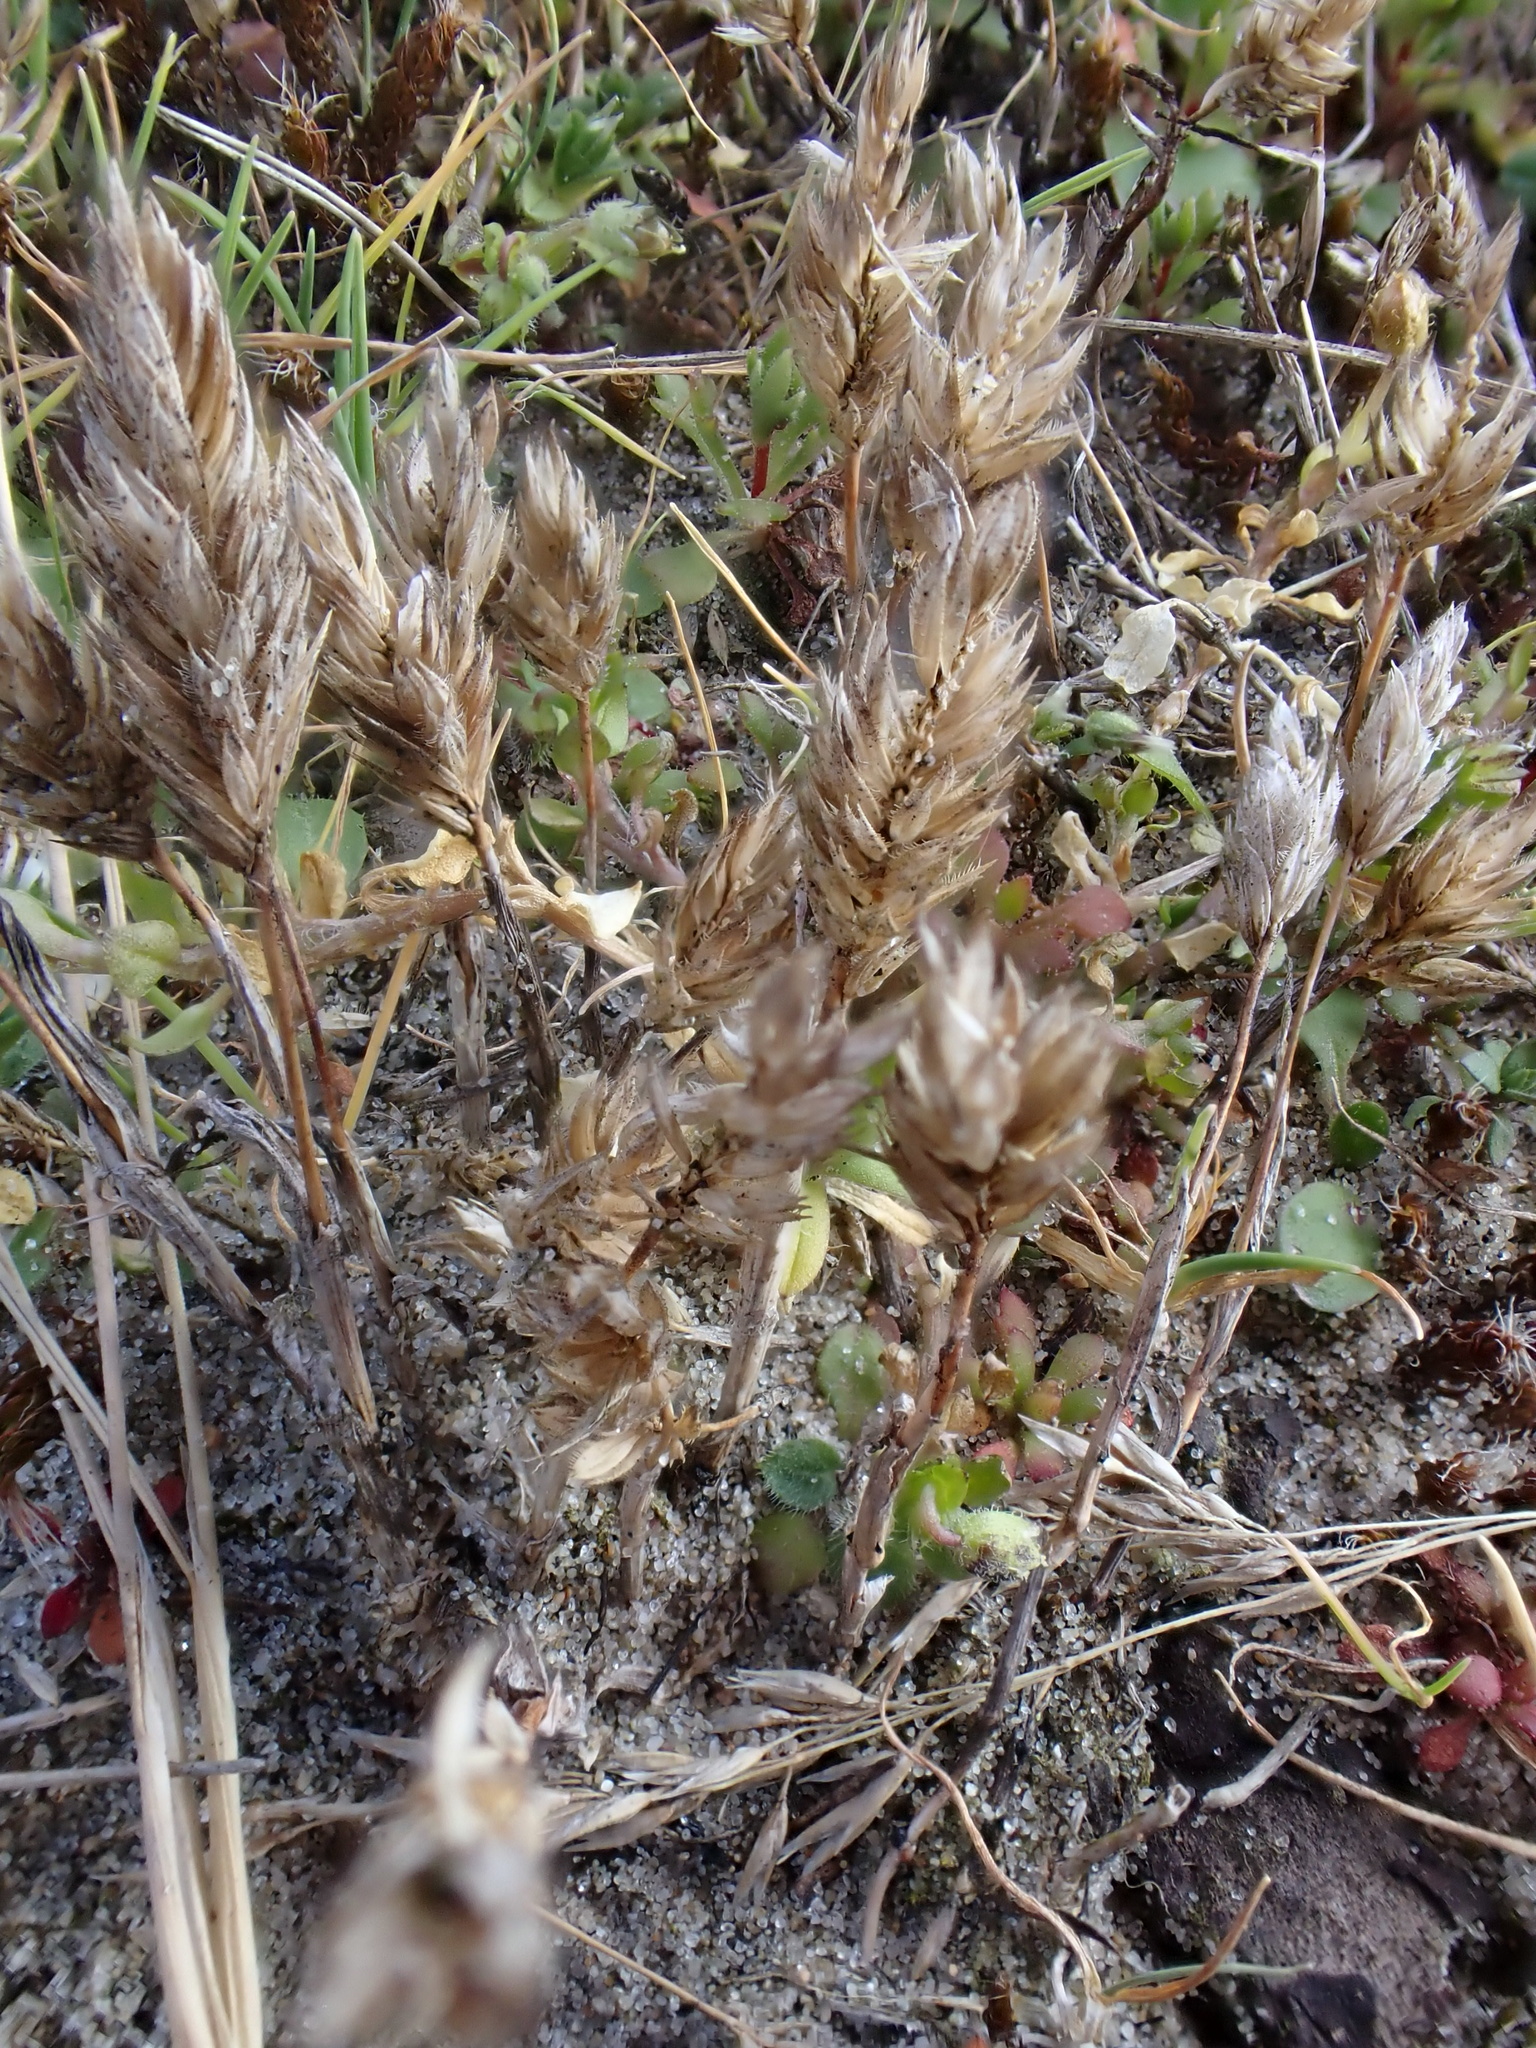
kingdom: Plantae
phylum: Tracheophyta
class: Liliopsida
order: Poales
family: Poaceae
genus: Phleum
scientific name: Phleum arenarium
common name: Sand cat's-tail
